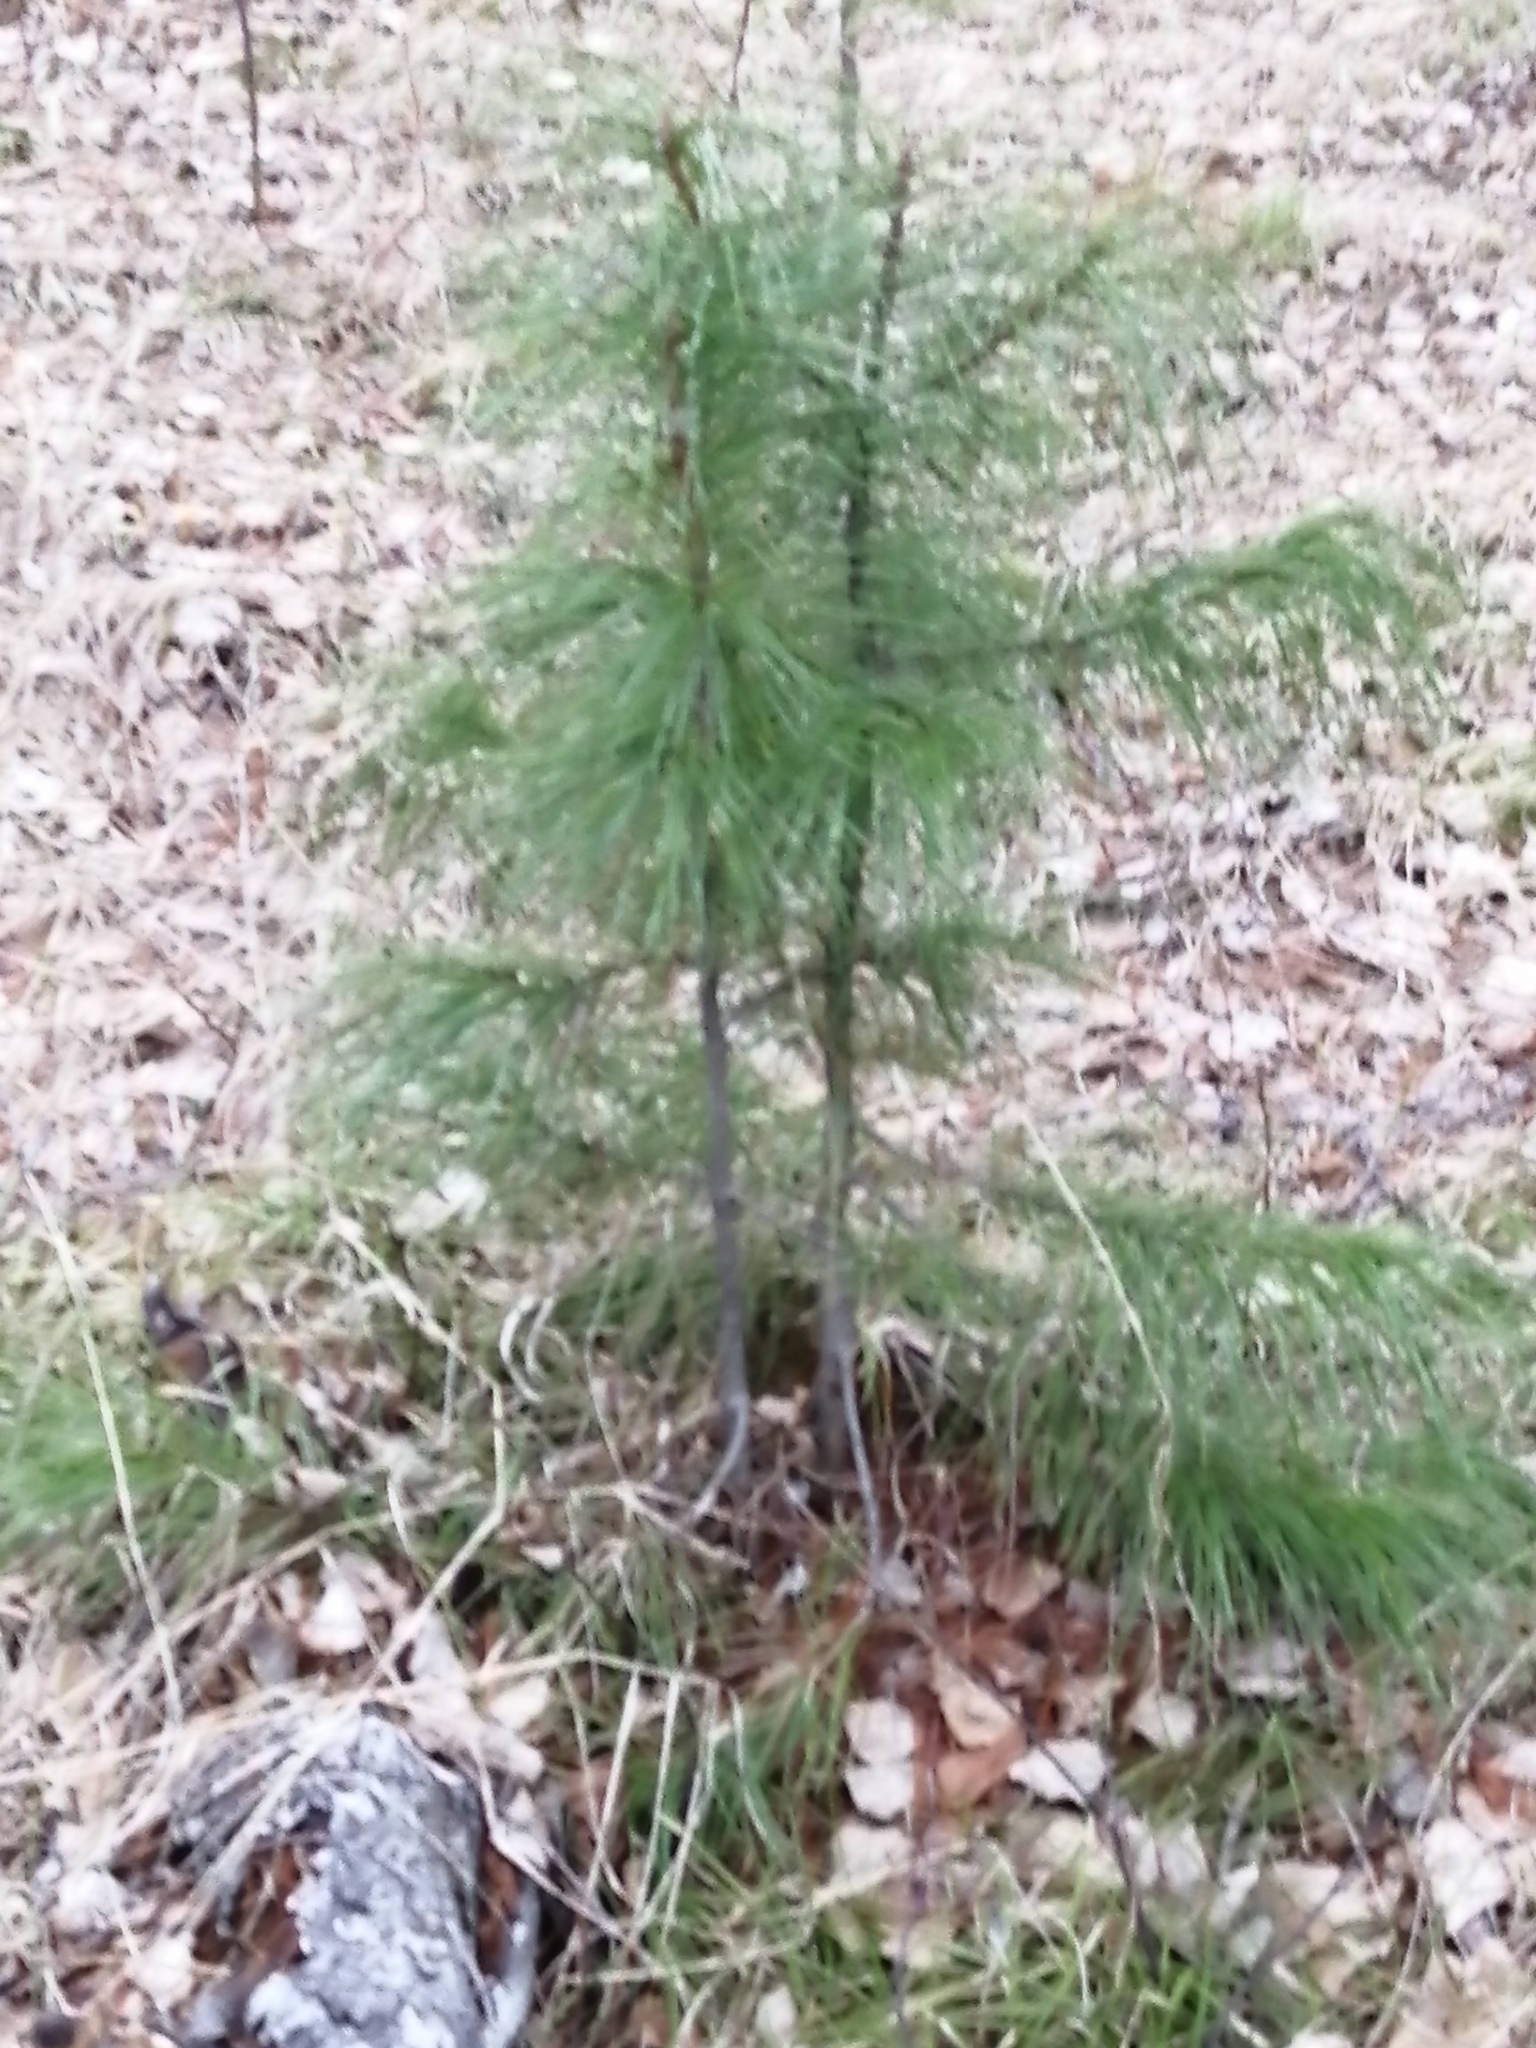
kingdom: Plantae
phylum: Tracheophyta
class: Pinopsida
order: Pinales
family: Pinaceae
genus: Pinus
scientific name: Pinus sibirica
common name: Siberian pine
